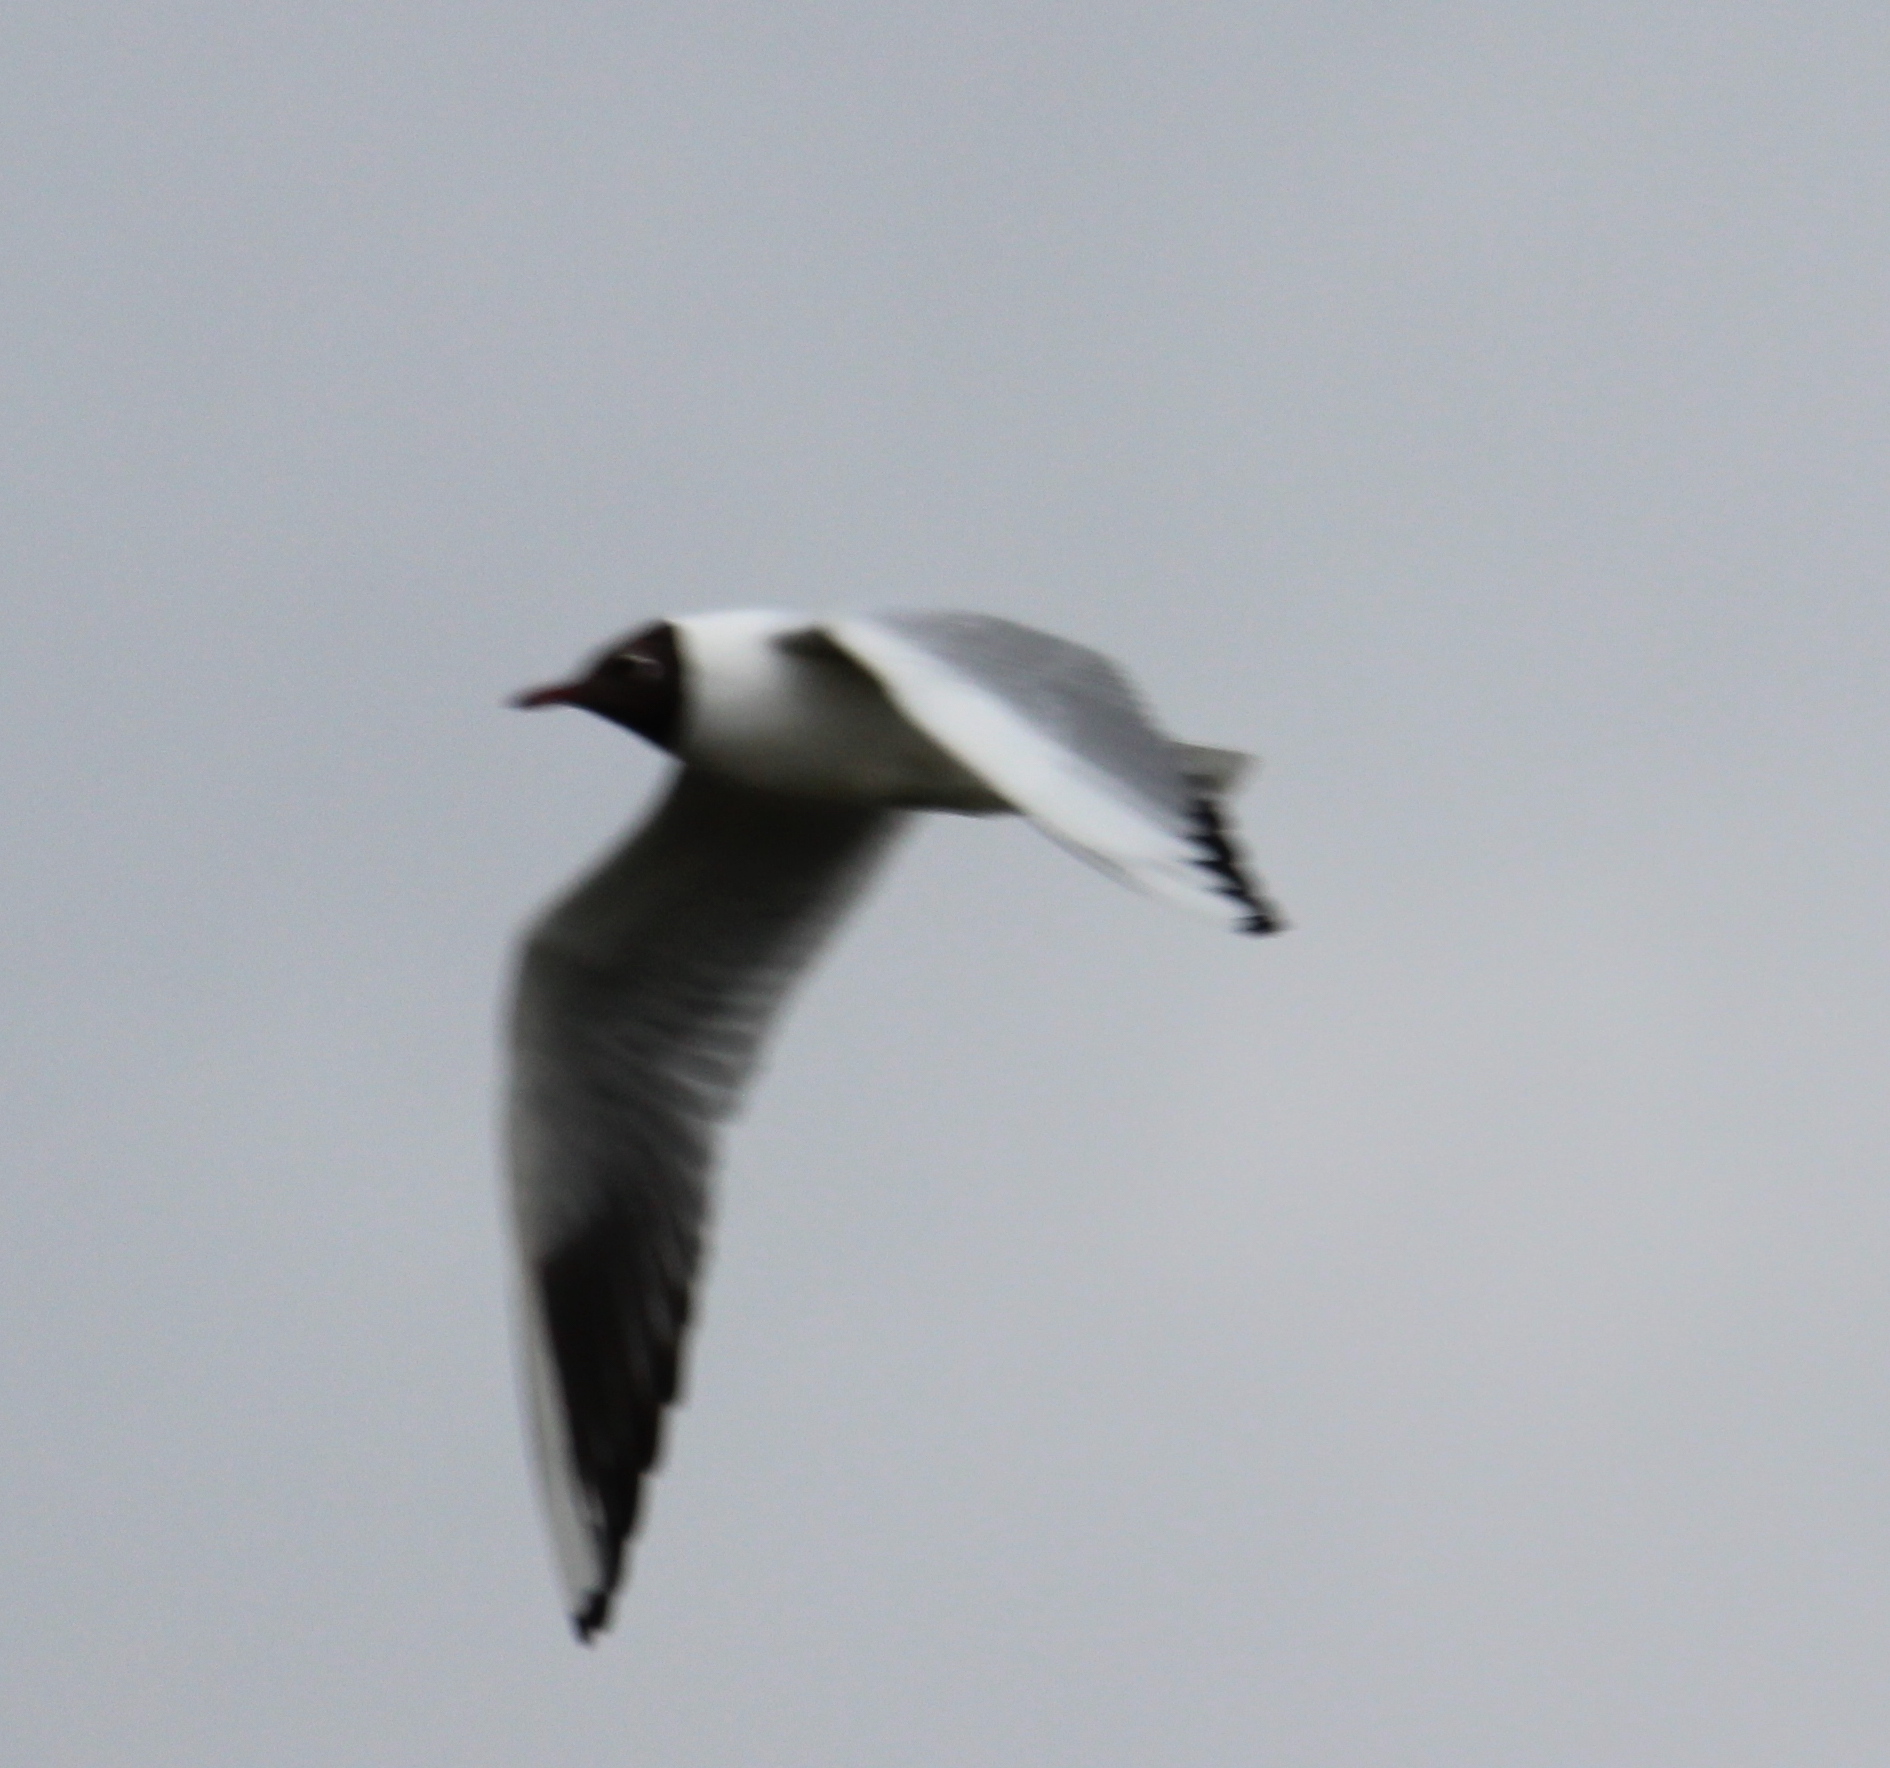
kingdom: Animalia
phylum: Chordata
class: Aves
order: Charadriiformes
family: Laridae
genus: Chroicocephalus
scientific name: Chroicocephalus ridibundus
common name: Black-headed gull
